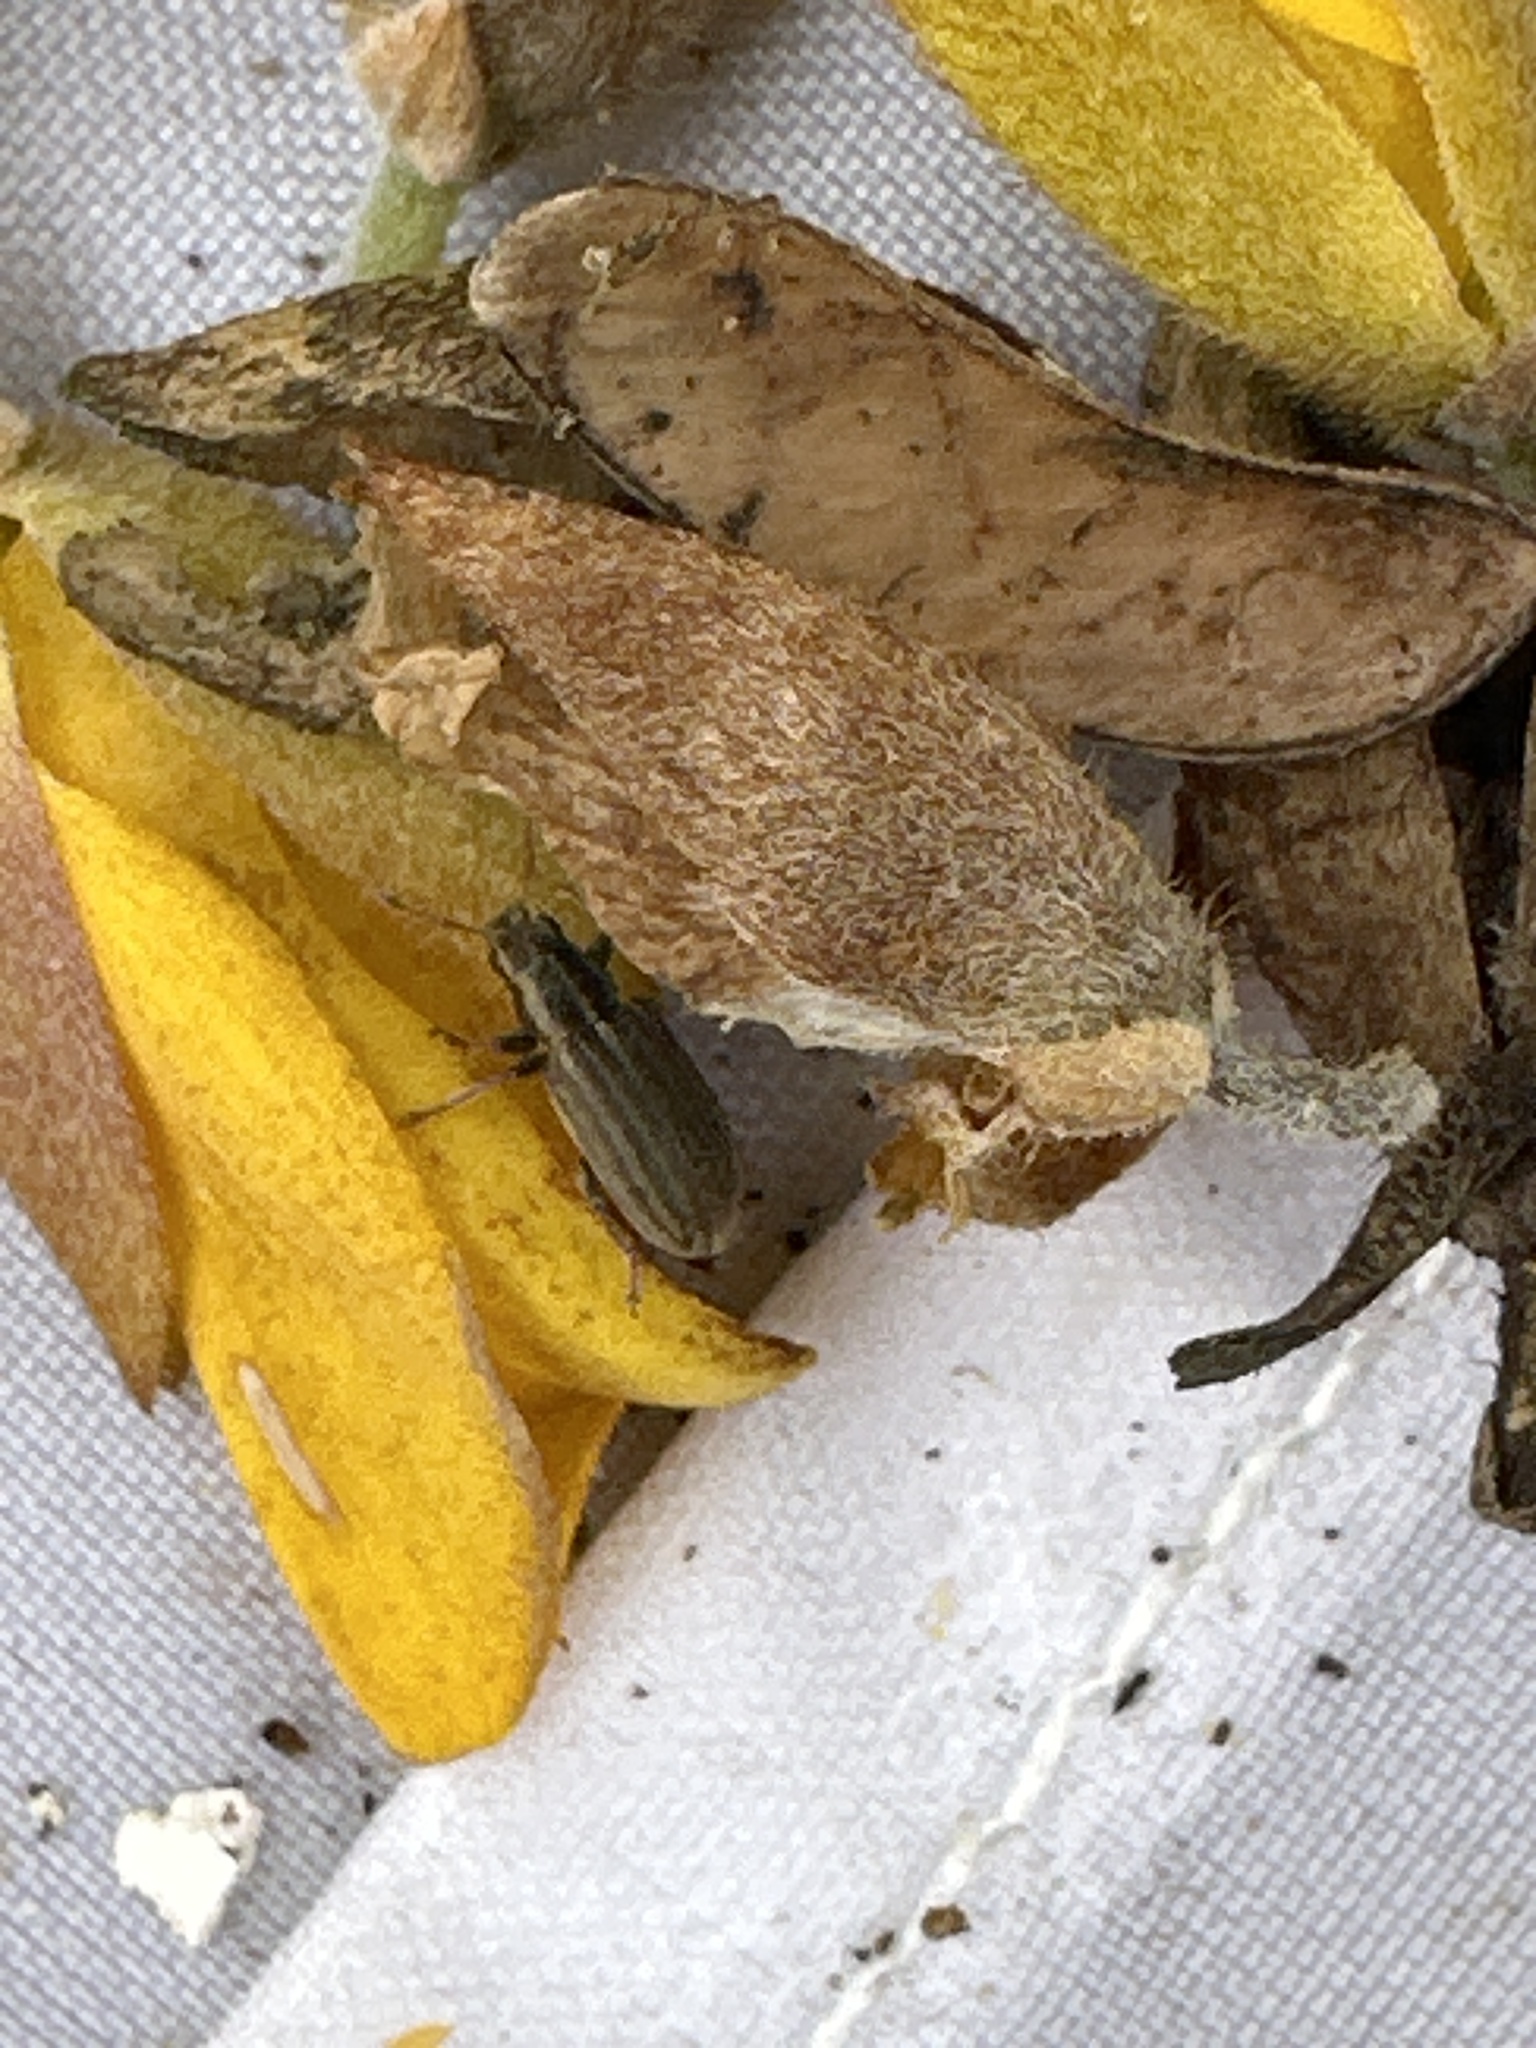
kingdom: Animalia
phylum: Arthropoda
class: Insecta
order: Coleoptera
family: Curculionidae
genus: Sitona
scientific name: Sitona lineatus
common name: Weevil
